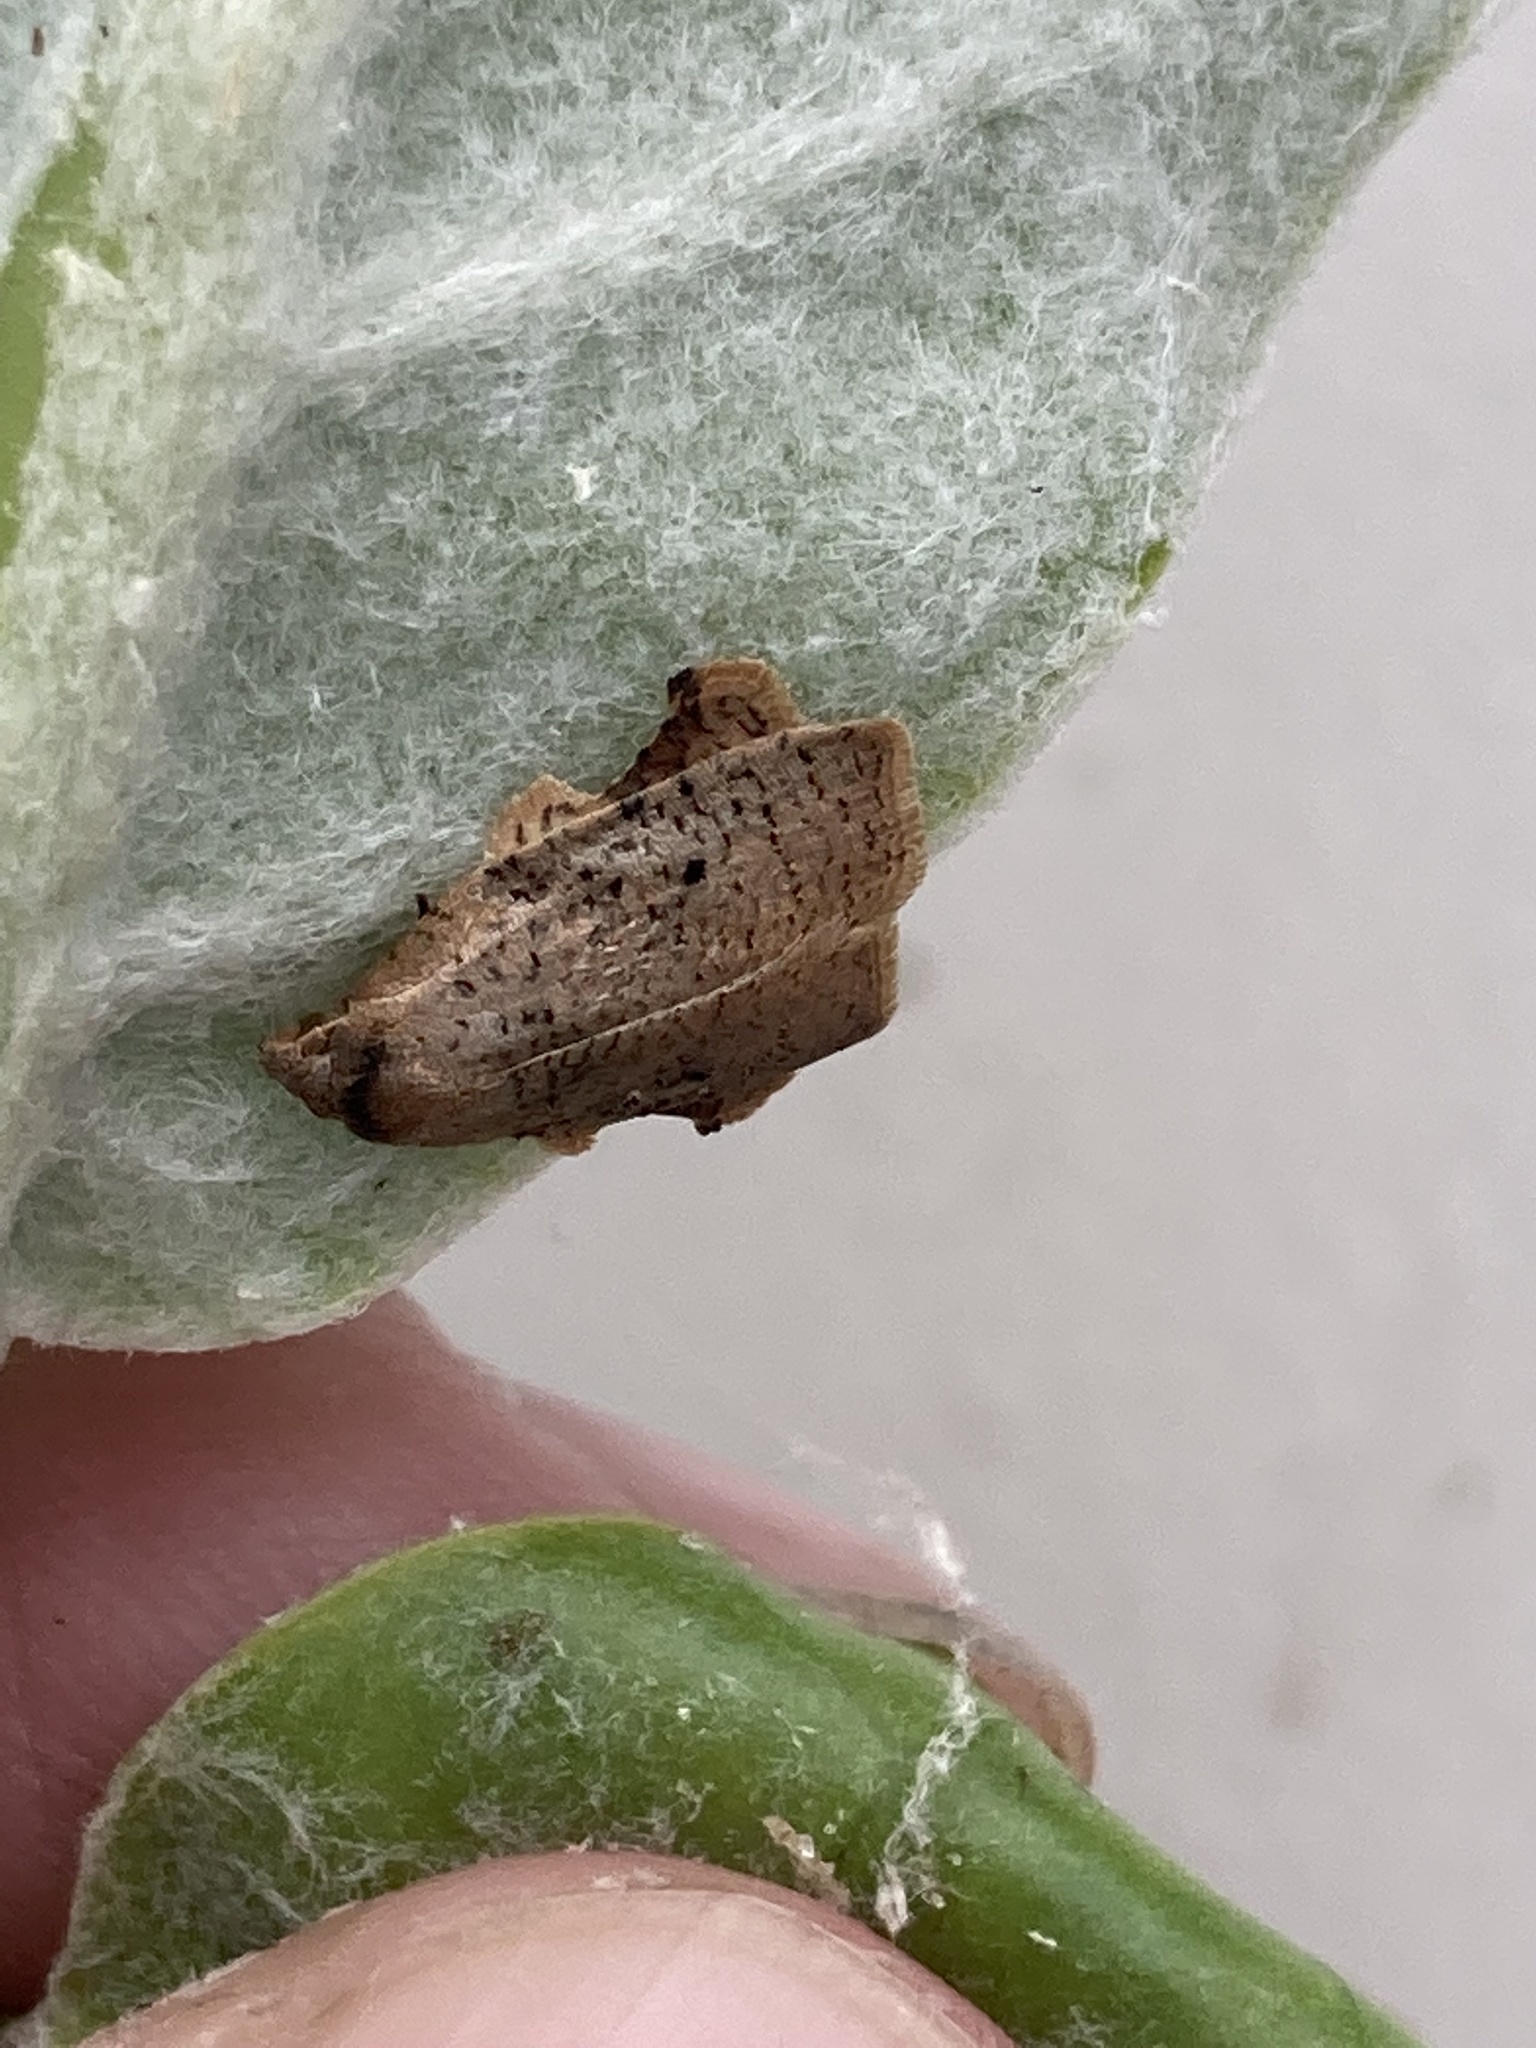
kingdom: Animalia
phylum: Arthropoda
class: Insecta
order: Lepidoptera
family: Tortricidae
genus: Amorbia
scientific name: Amorbia concavana
